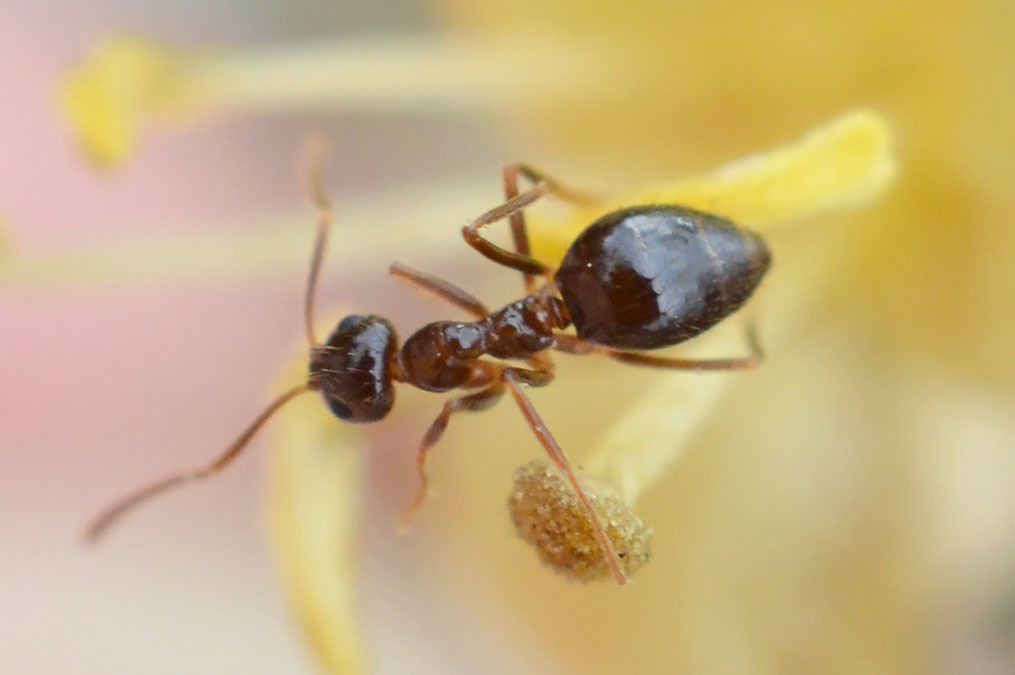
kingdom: Animalia
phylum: Arthropoda
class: Insecta
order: Hymenoptera
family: Formicidae
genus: Prenolepis
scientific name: Prenolepis nitens
